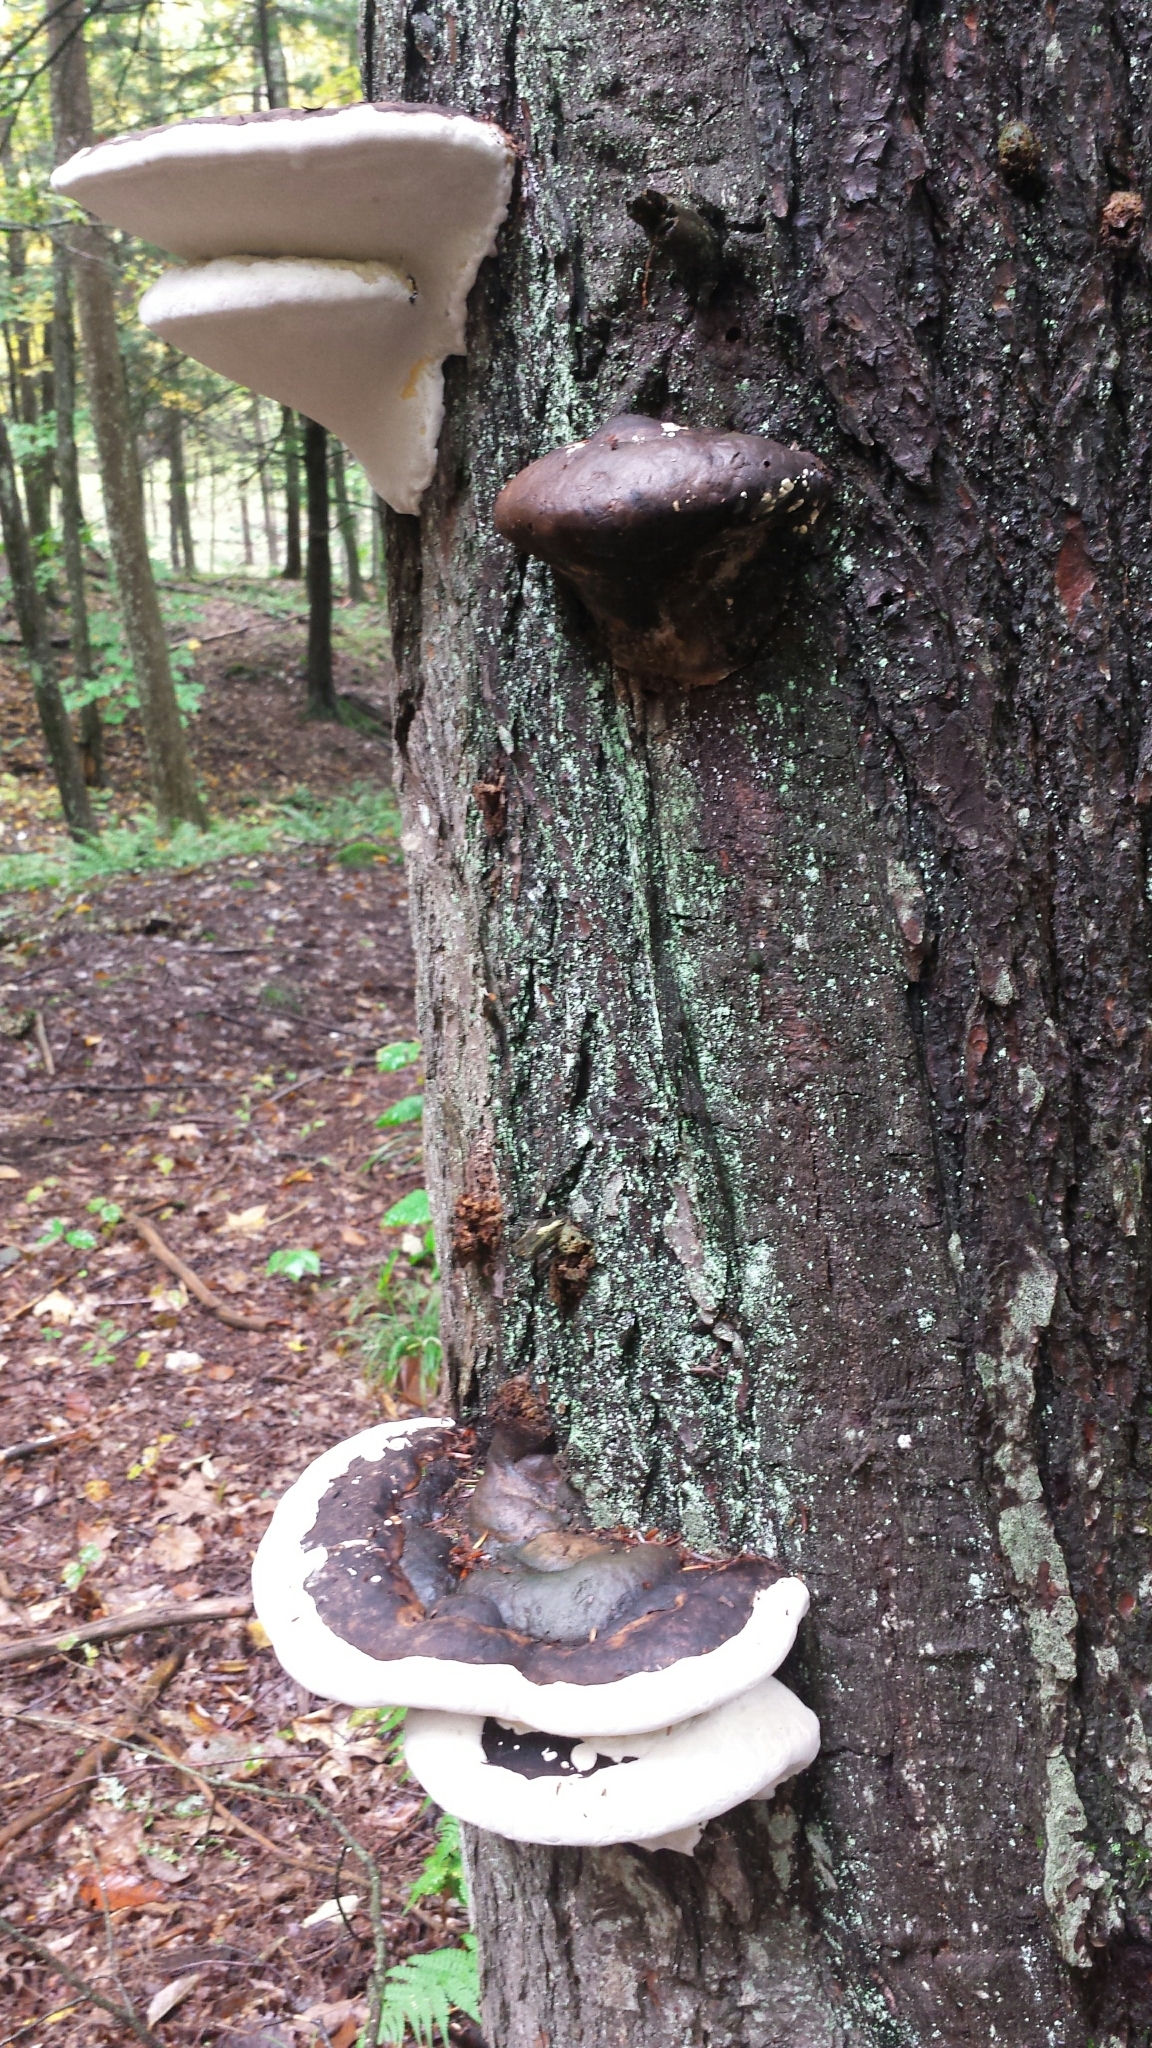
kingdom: Fungi
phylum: Basidiomycota
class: Agaricomycetes
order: Polyporales
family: Polyporaceae
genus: Ganoderma
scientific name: Ganoderma applanatum
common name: Artist's bracket
